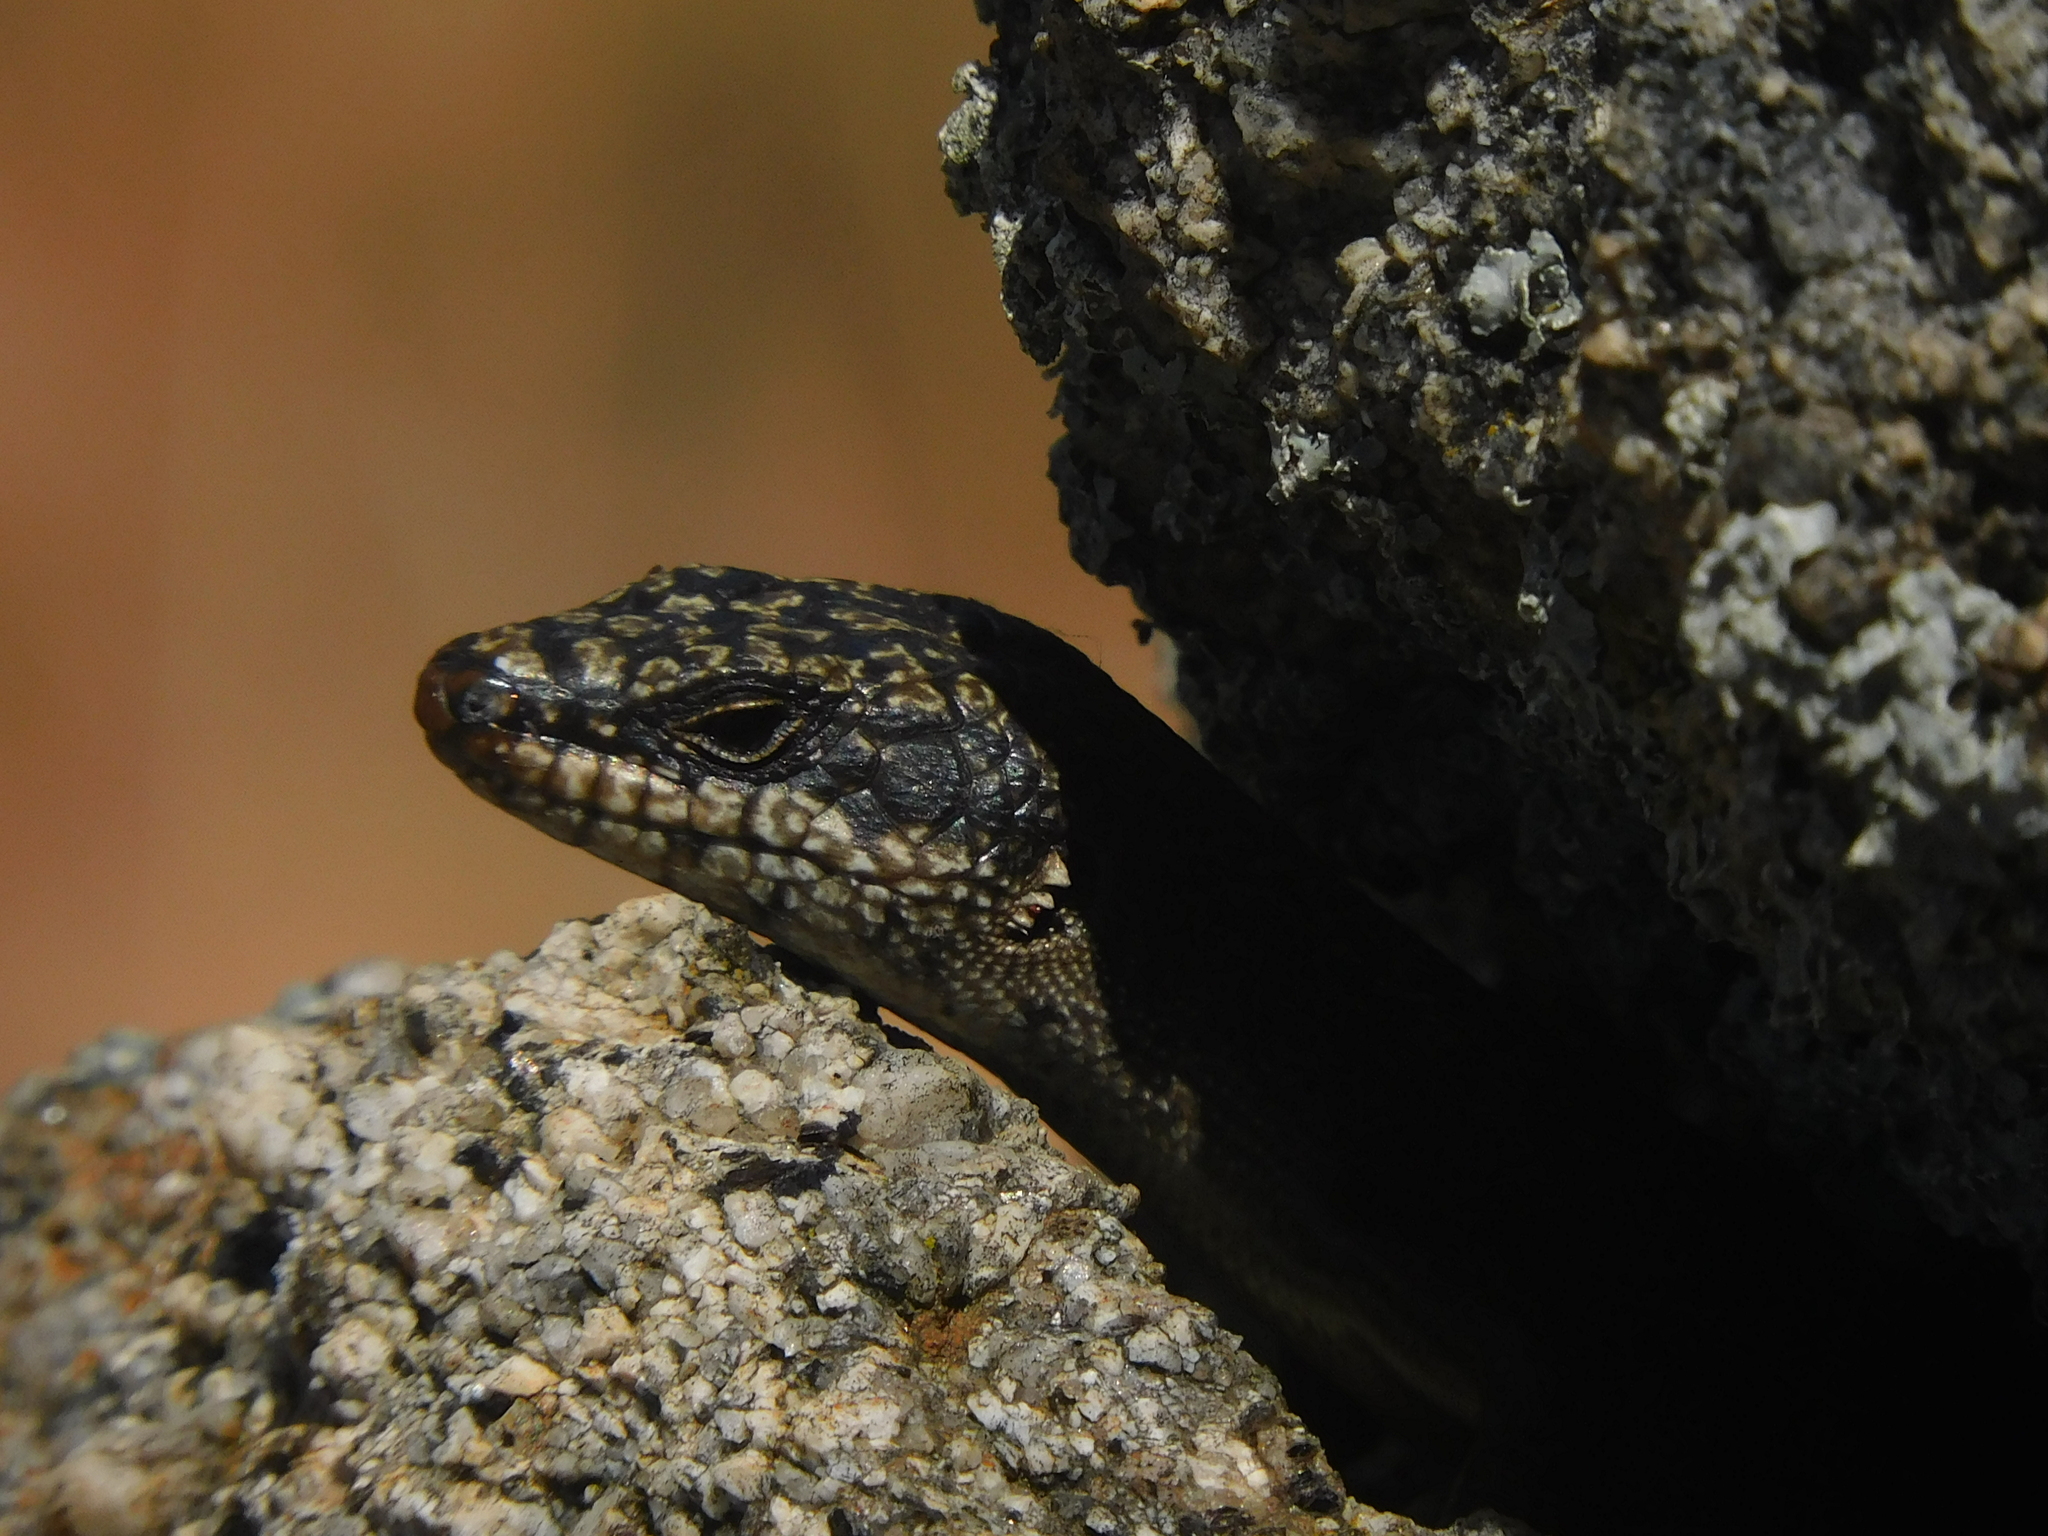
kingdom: Animalia
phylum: Chordata
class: Squamata
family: Scincidae
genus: Egernia
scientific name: Egernia saxatilis
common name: Black crevice-skink
